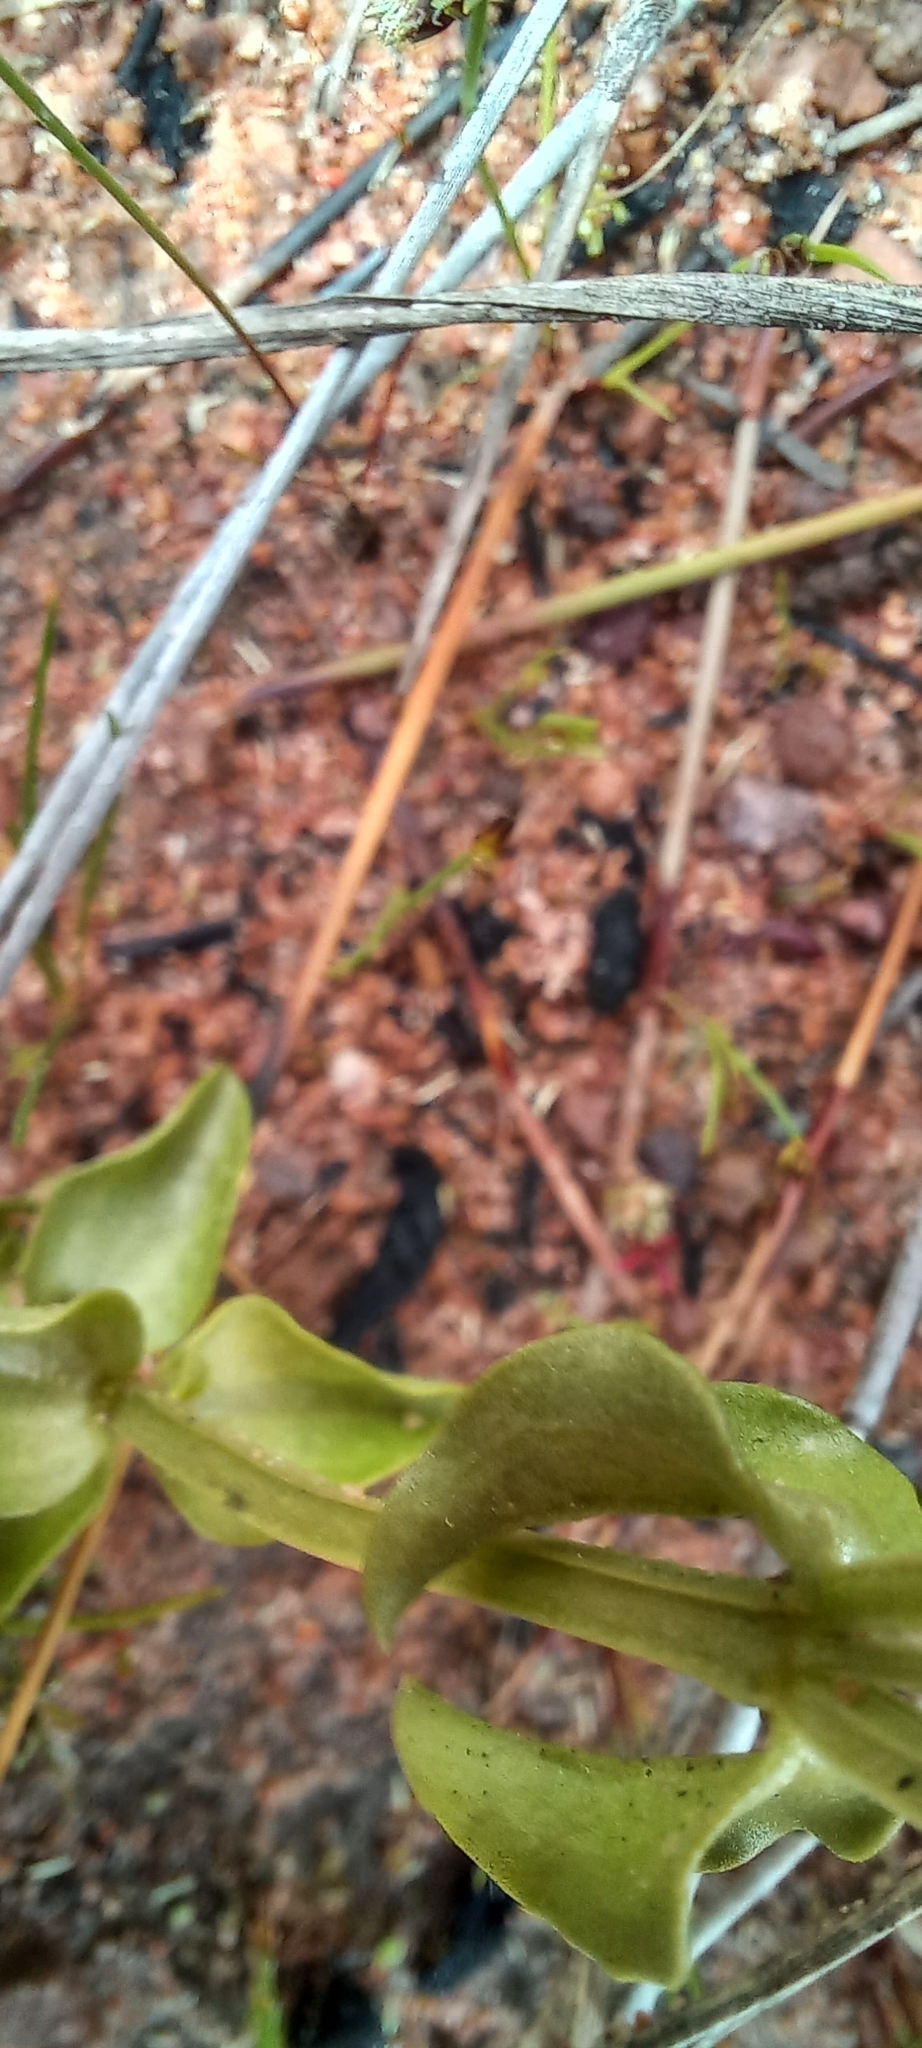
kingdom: Plantae
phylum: Tracheophyta
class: Magnoliopsida
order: Gentianales
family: Gentianaceae
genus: Sebaea
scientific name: Sebaea aurea
